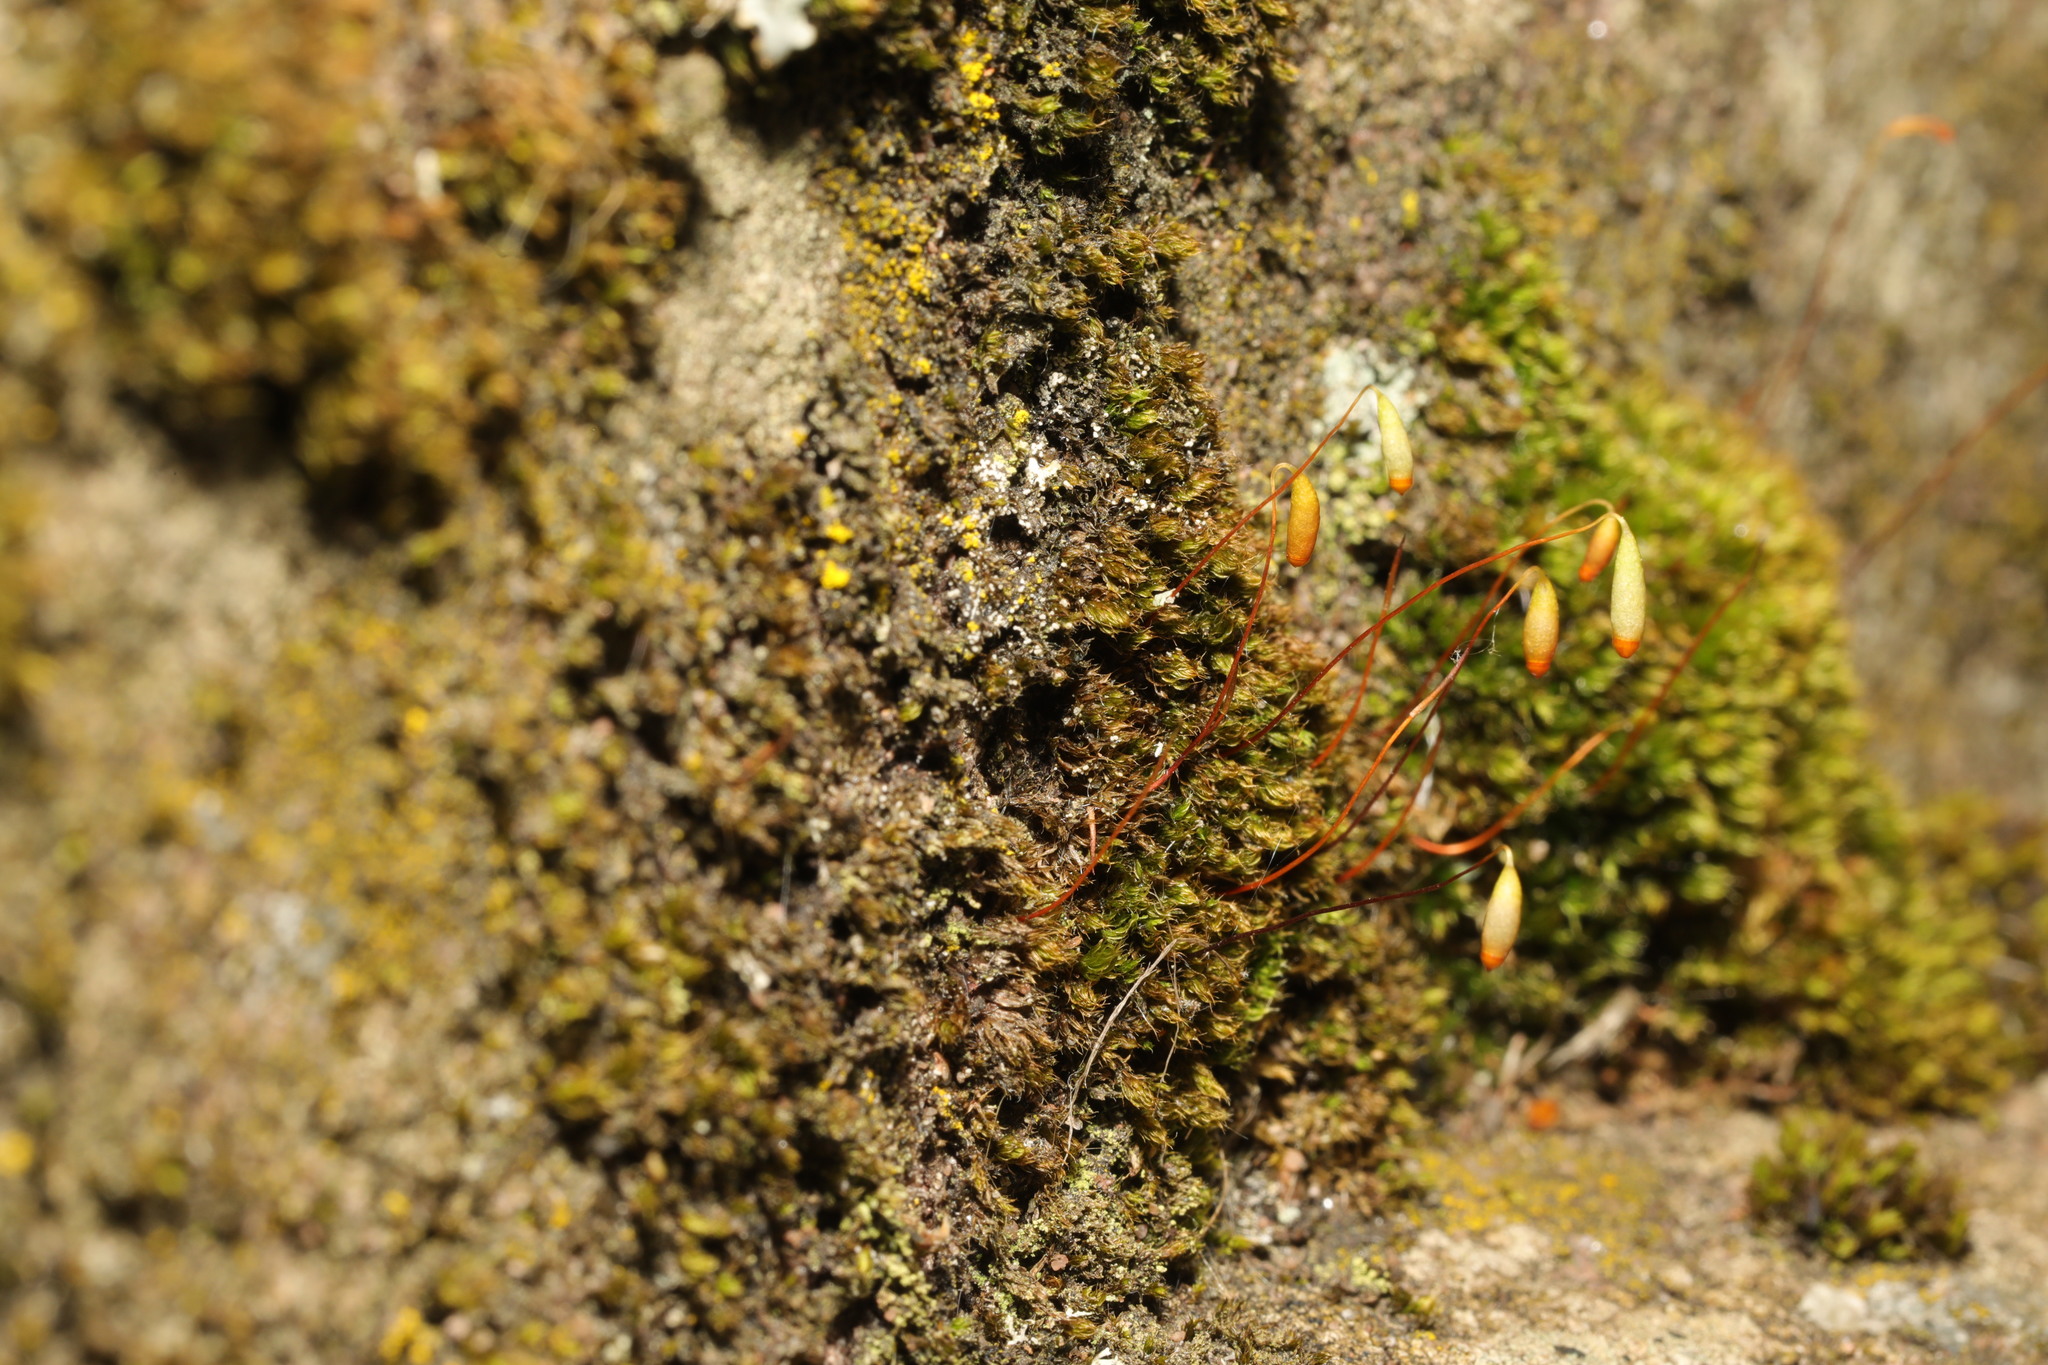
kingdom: Plantae
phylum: Bryophyta
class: Bryopsida
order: Bryales
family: Bryaceae
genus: Rosulabryum
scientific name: Rosulabryum capillare
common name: Capillary thread-moss
